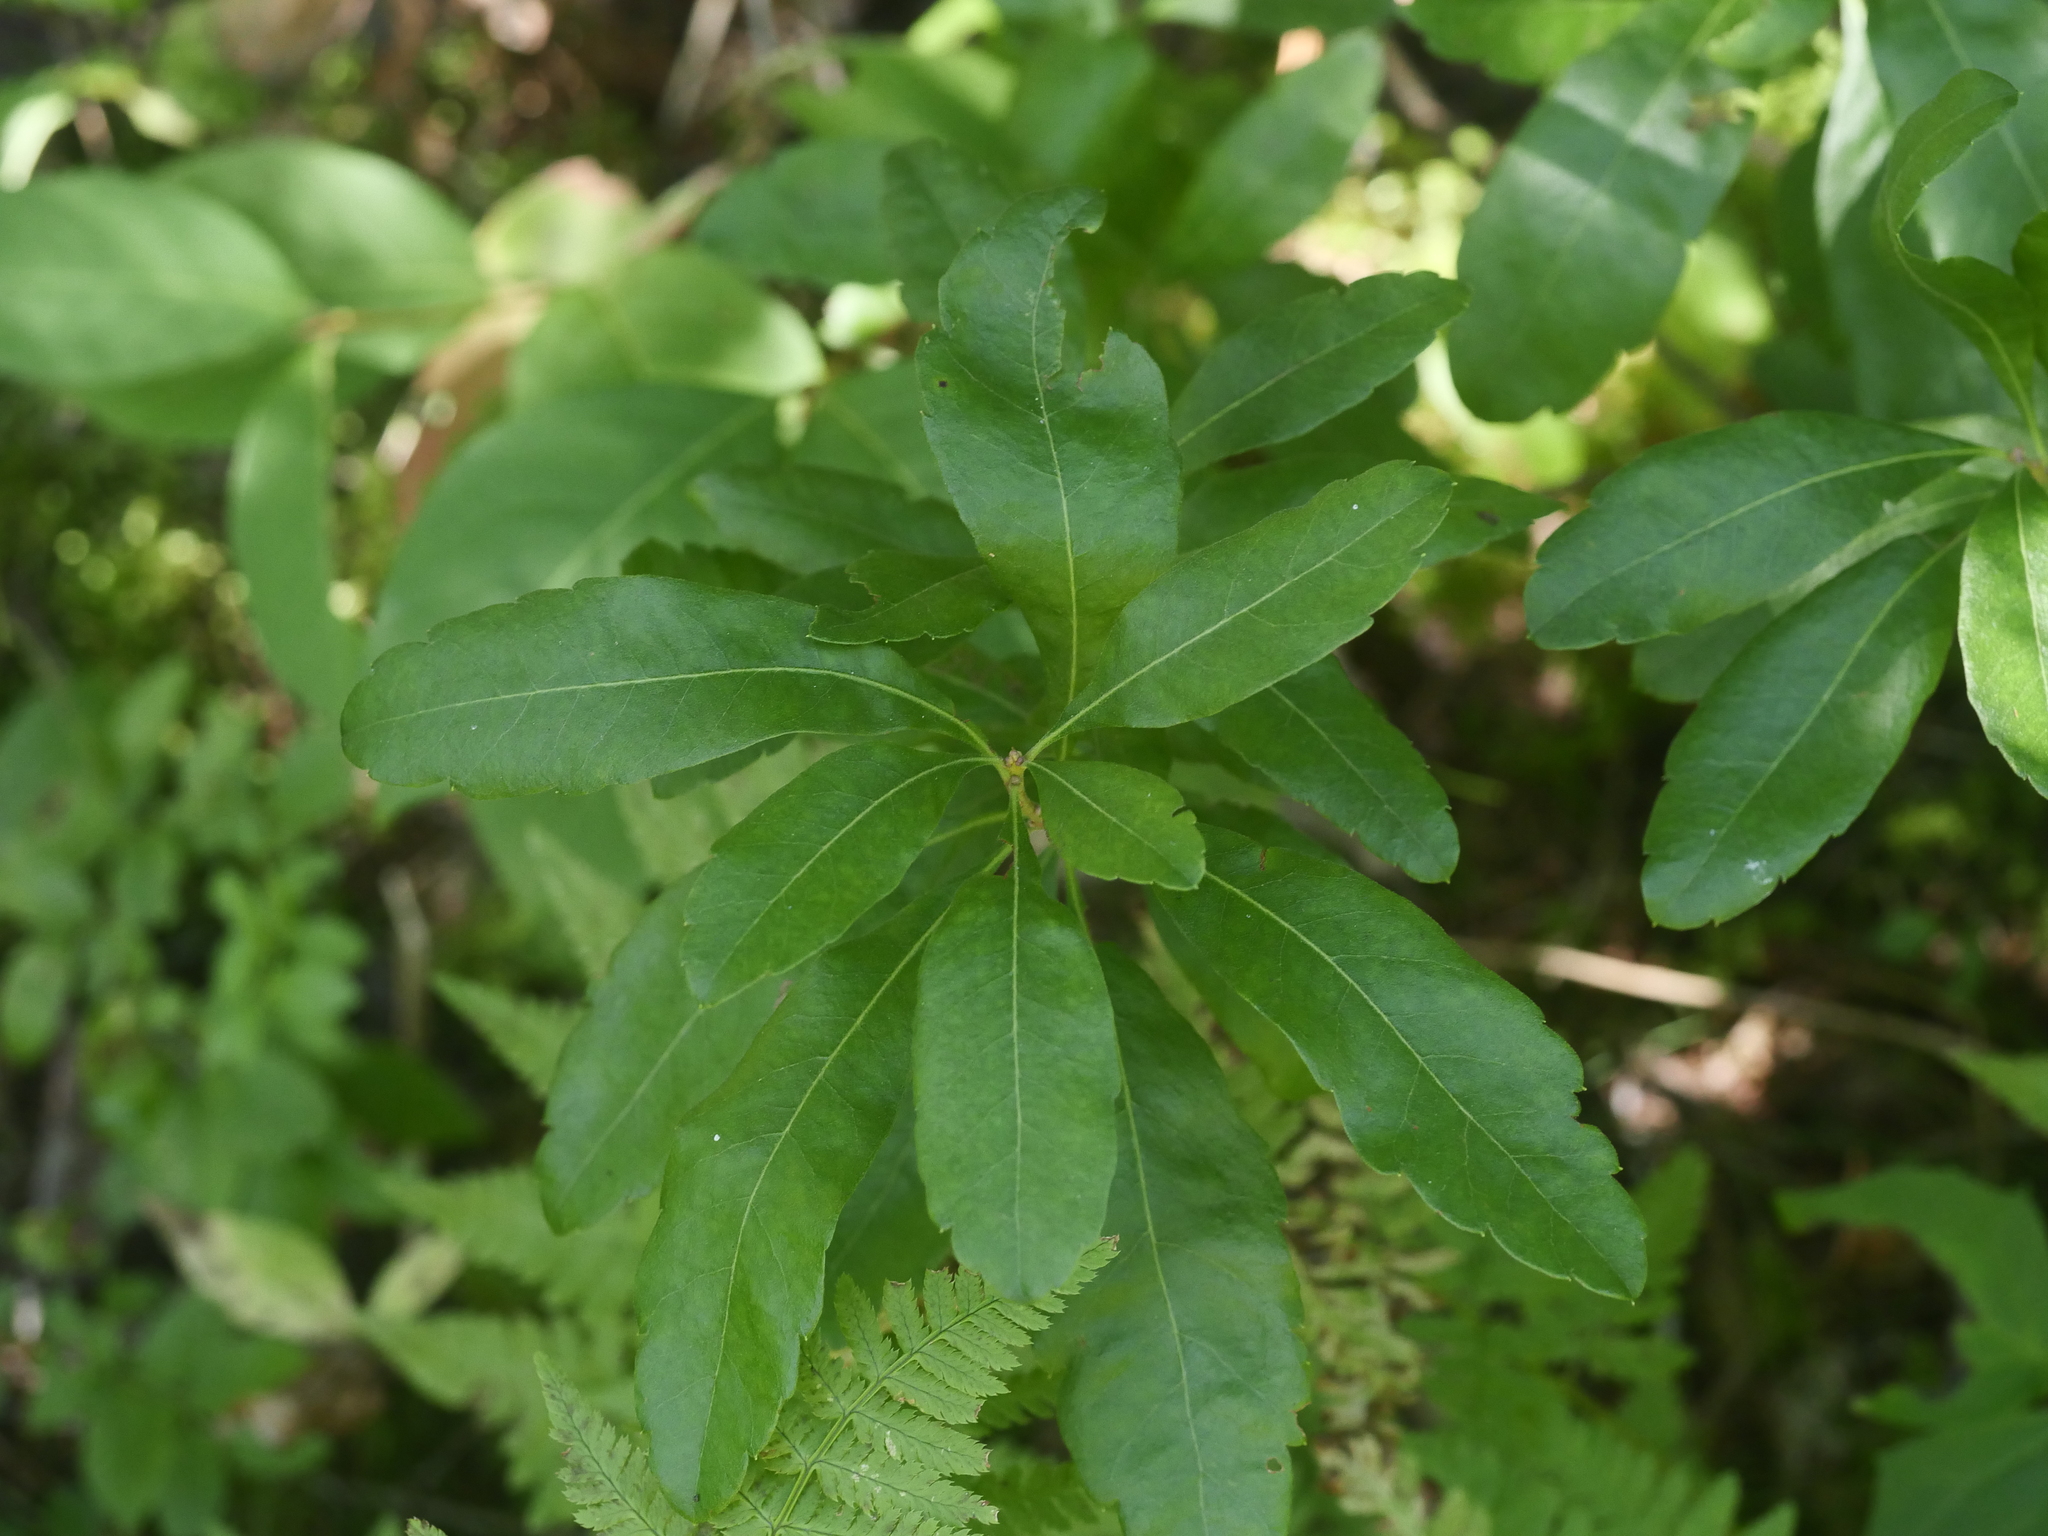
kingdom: Plantae
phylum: Tracheophyta
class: Magnoliopsida
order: Fagales
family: Myricaceae
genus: Morella
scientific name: Morella pensylvanica
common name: Northern bayberry
